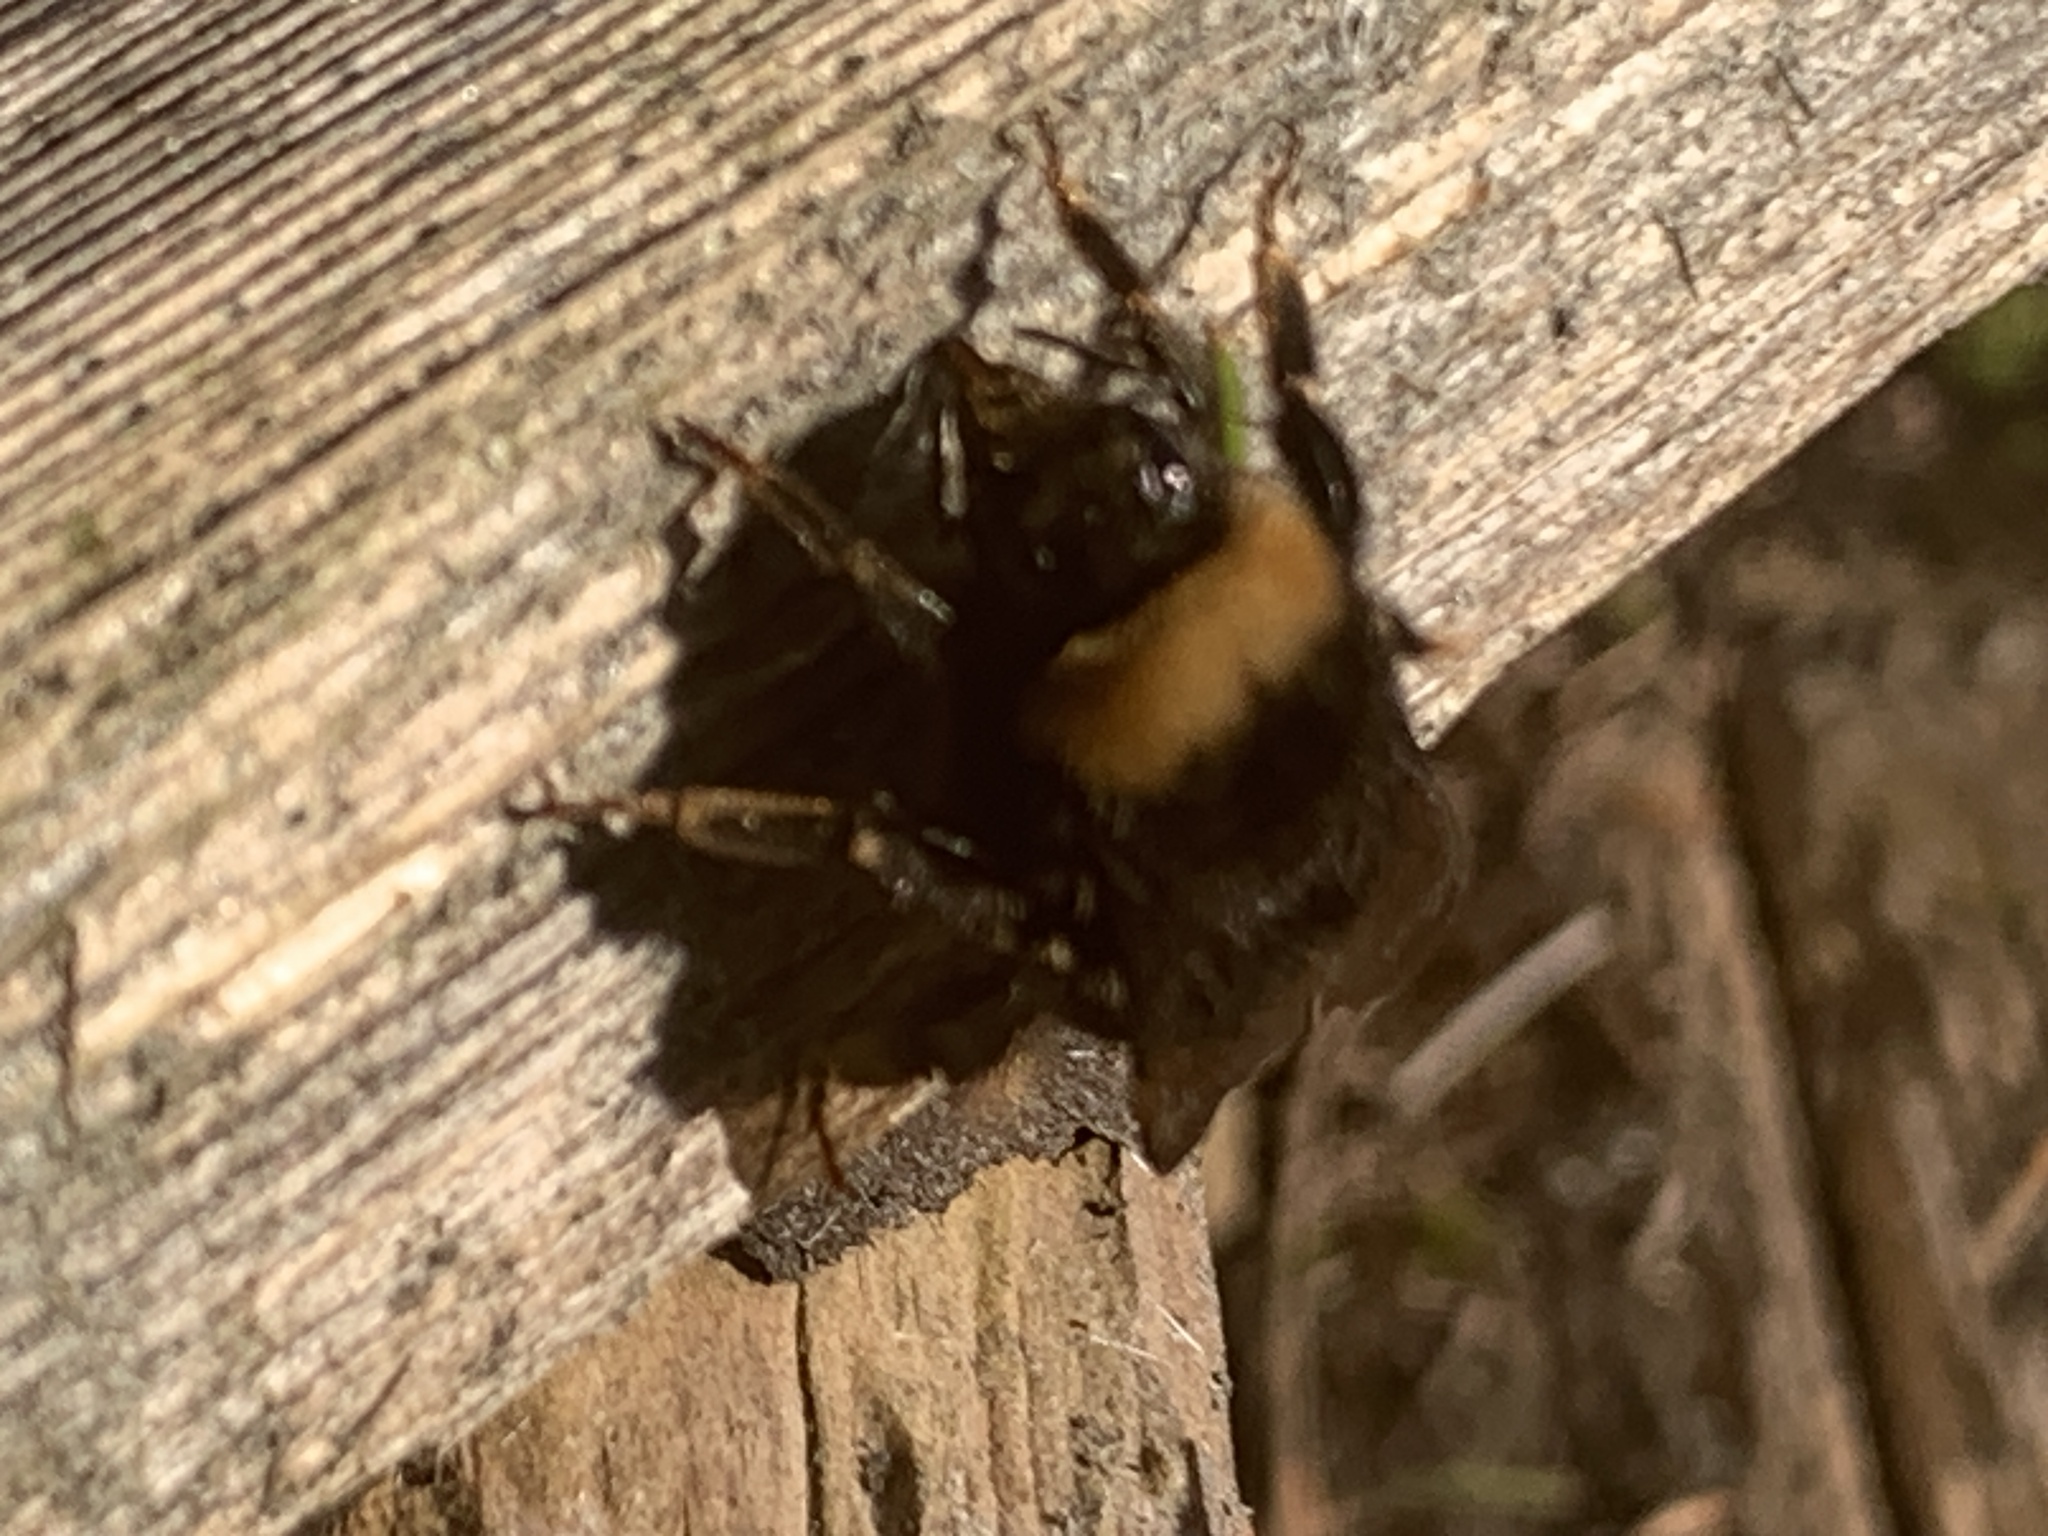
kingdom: Animalia
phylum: Arthropoda
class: Insecta
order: Hymenoptera
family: Apidae
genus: Bombus
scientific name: Bombus occidentalis
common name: Western bumble bee
